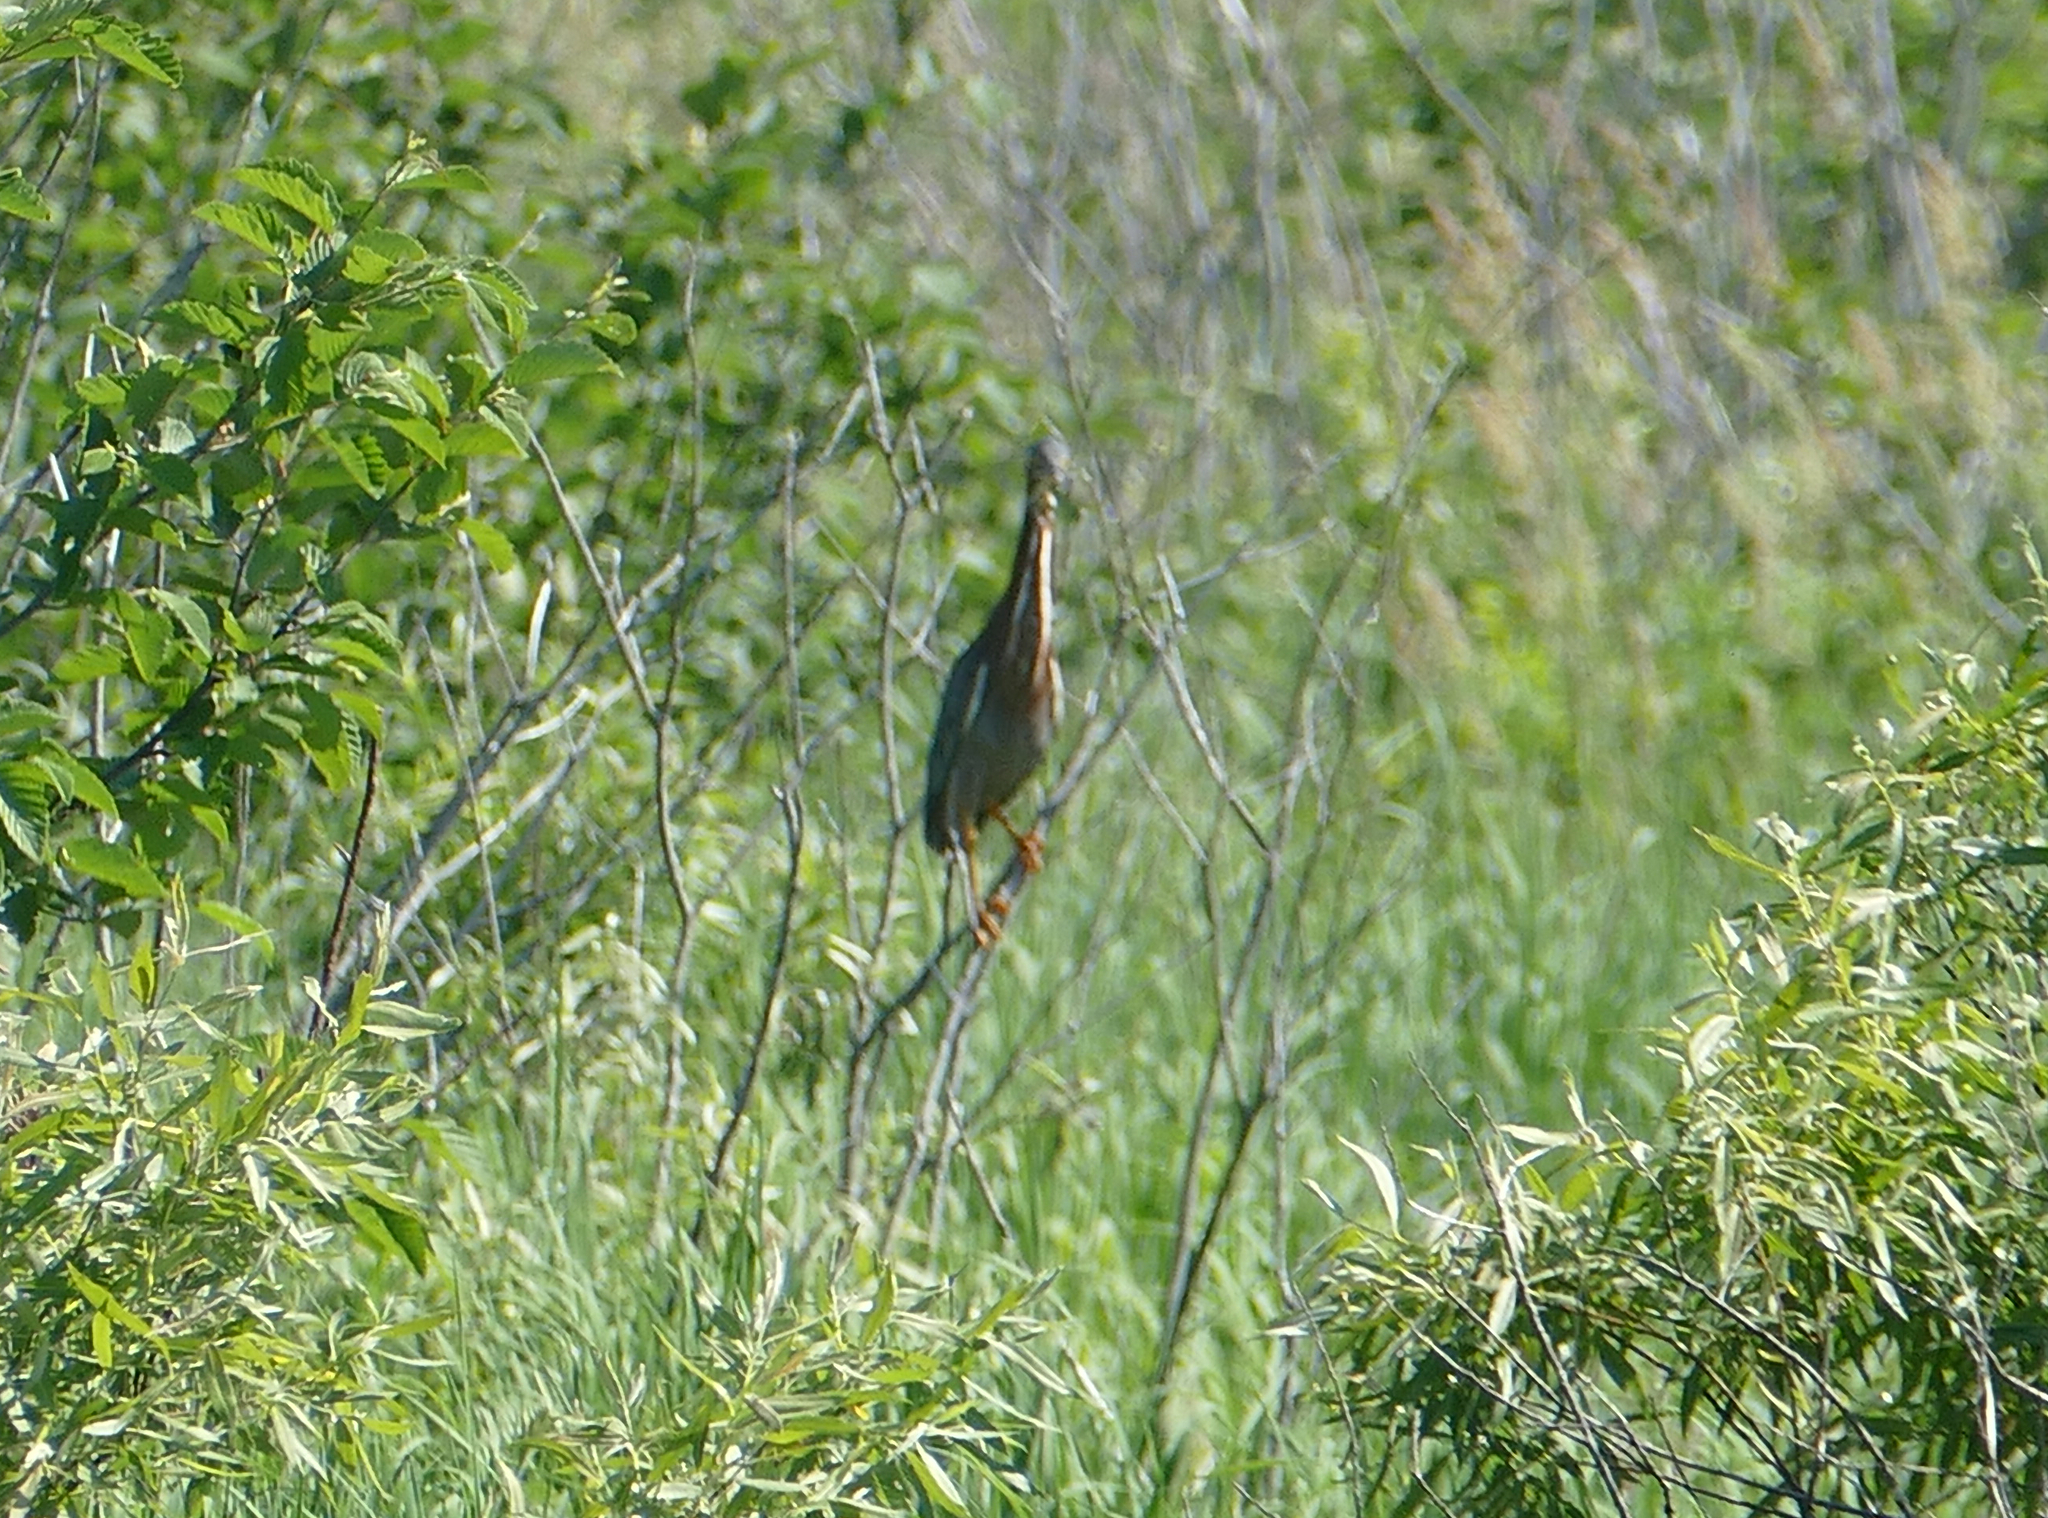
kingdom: Animalia
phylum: Chordata
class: Aves
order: Pelecaniformes
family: Ardeidae
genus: Butorides
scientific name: Butorides virescens
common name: Green heron
